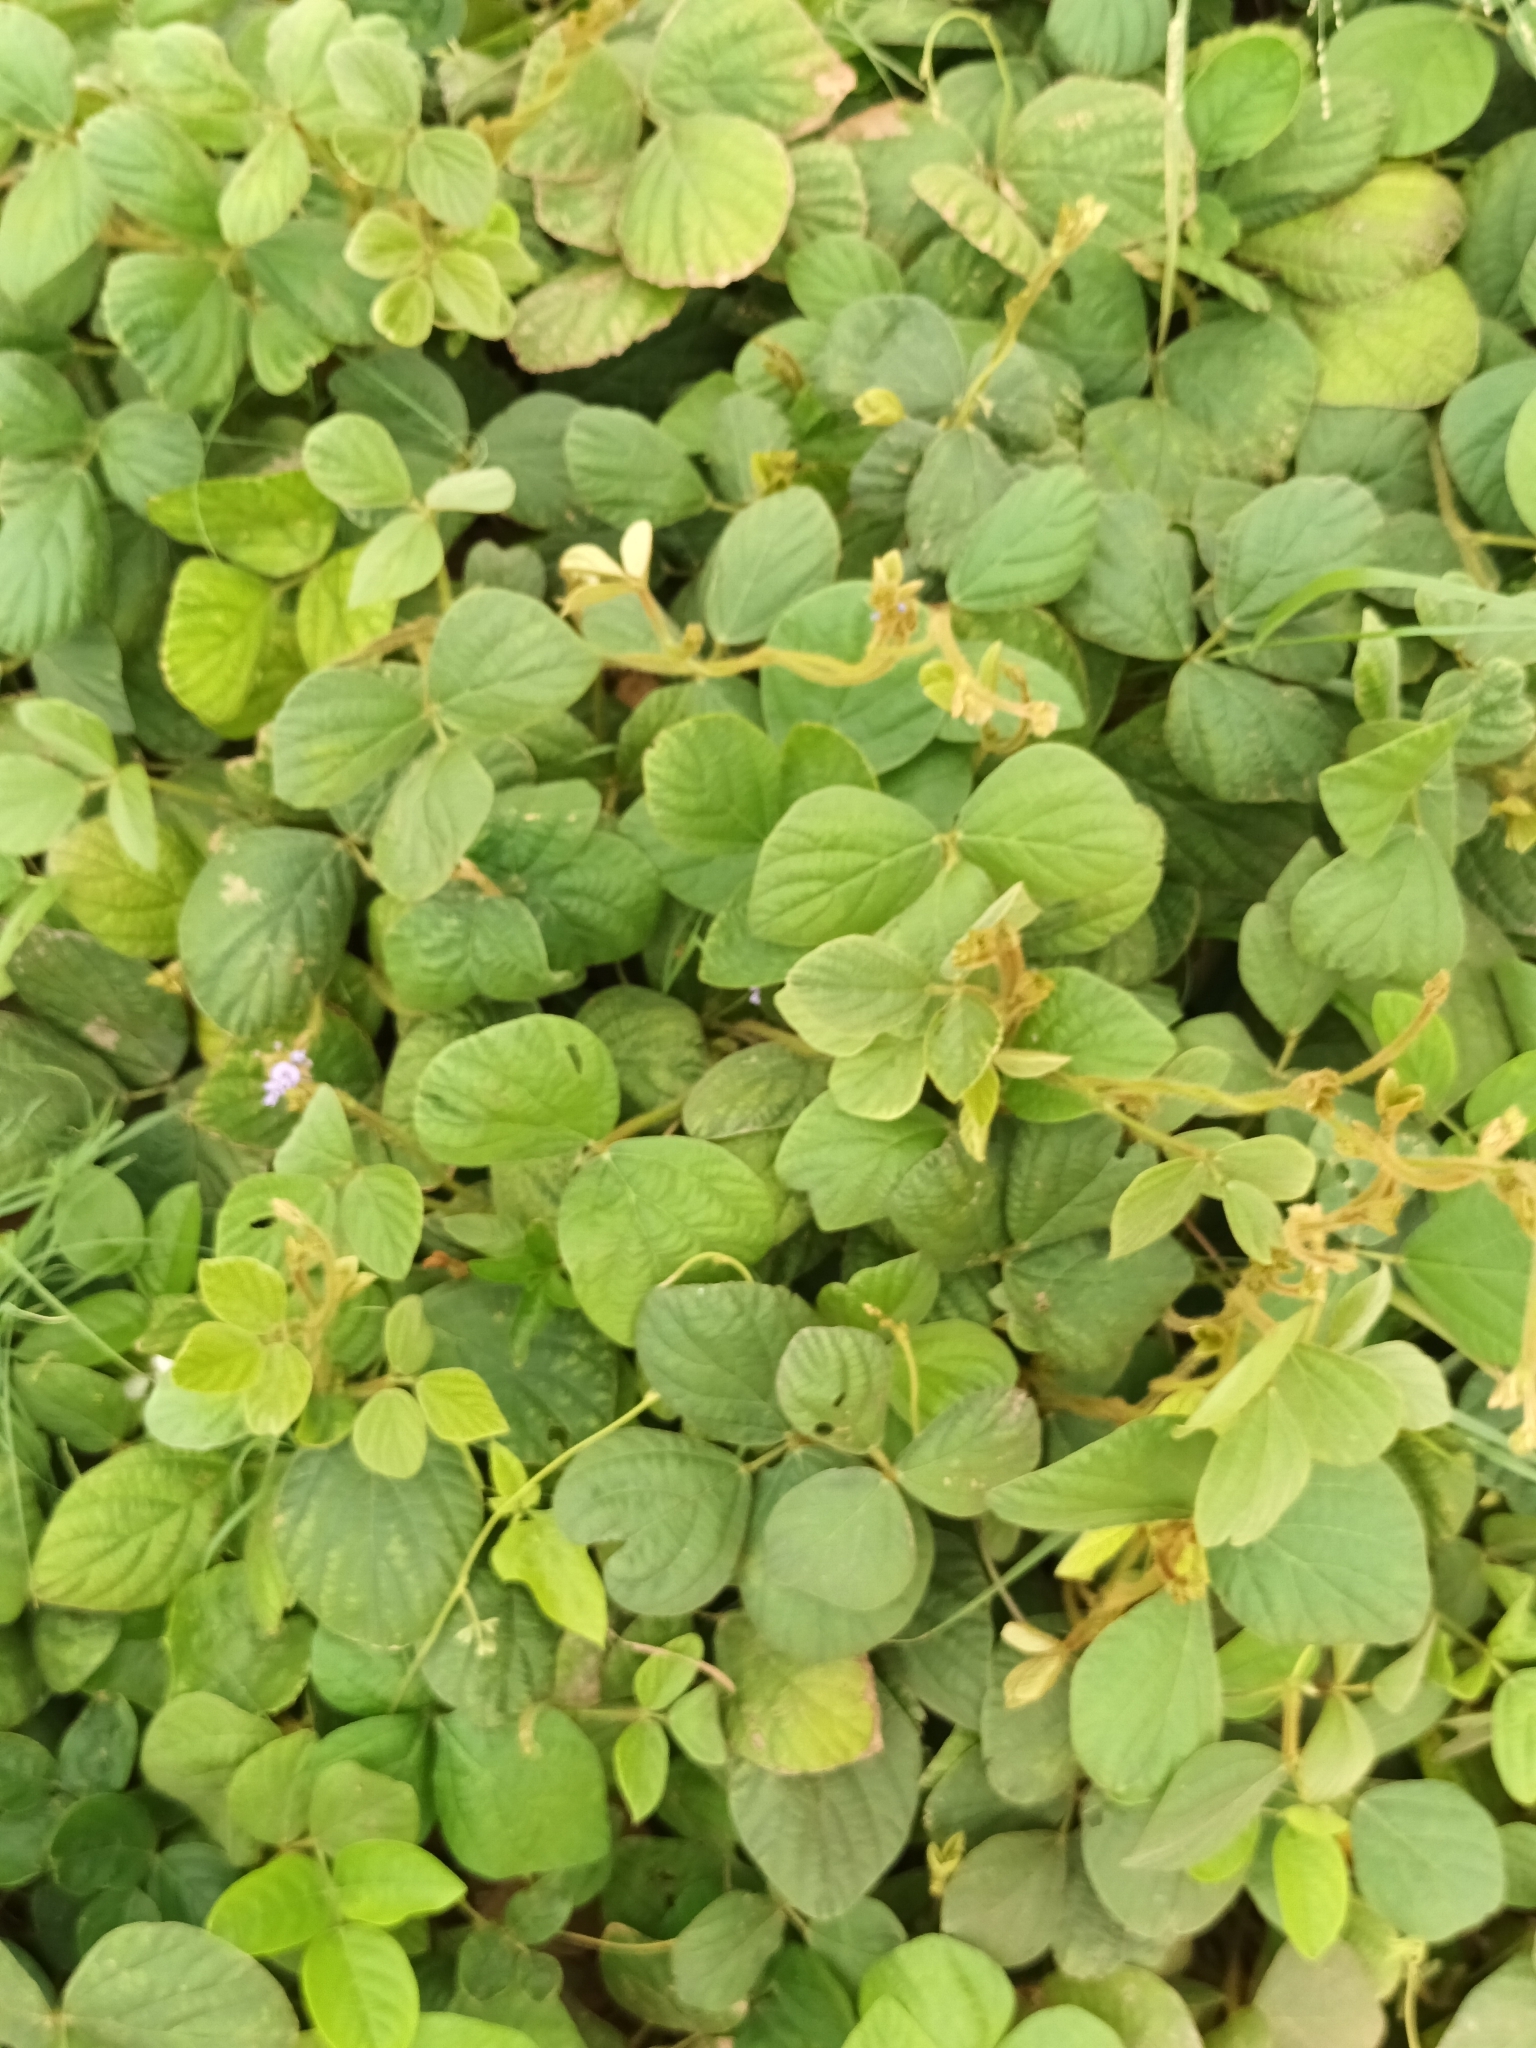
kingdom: Plantae
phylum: Tracheophyta
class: Magnoliopsida
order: Fabales
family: Fabaceae
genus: Calopogonium
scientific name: Calopogonium mucunoides
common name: Calopo
